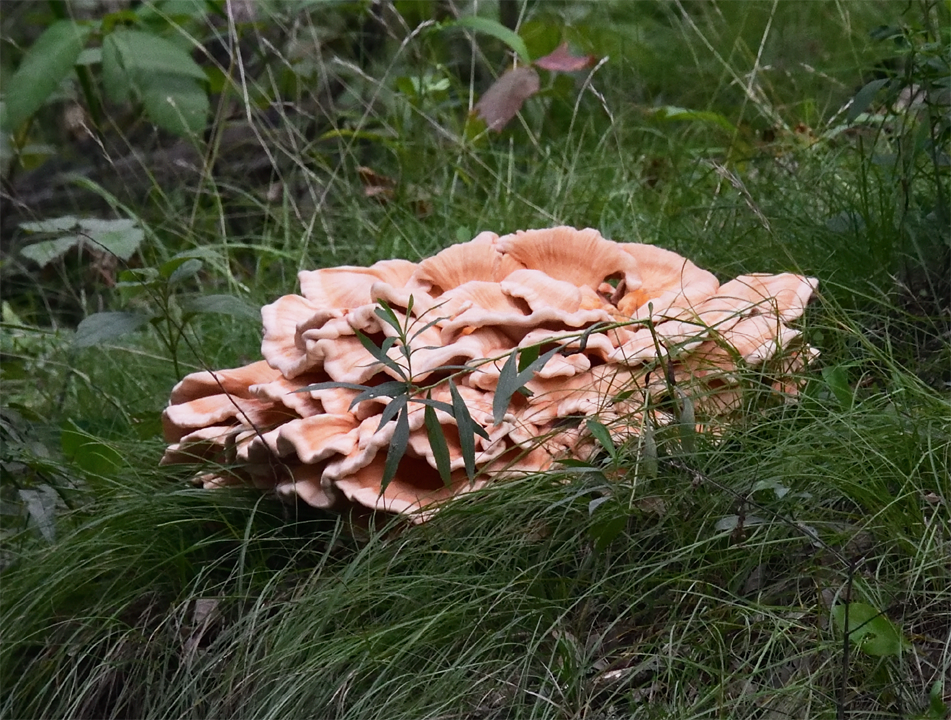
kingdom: Fungi
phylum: Basidiomycota
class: Agaricomycetes
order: Polyporales
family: Laetiporaceae
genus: Laetiporus
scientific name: Laetiporus sulphureus
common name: Chicken of the woods
